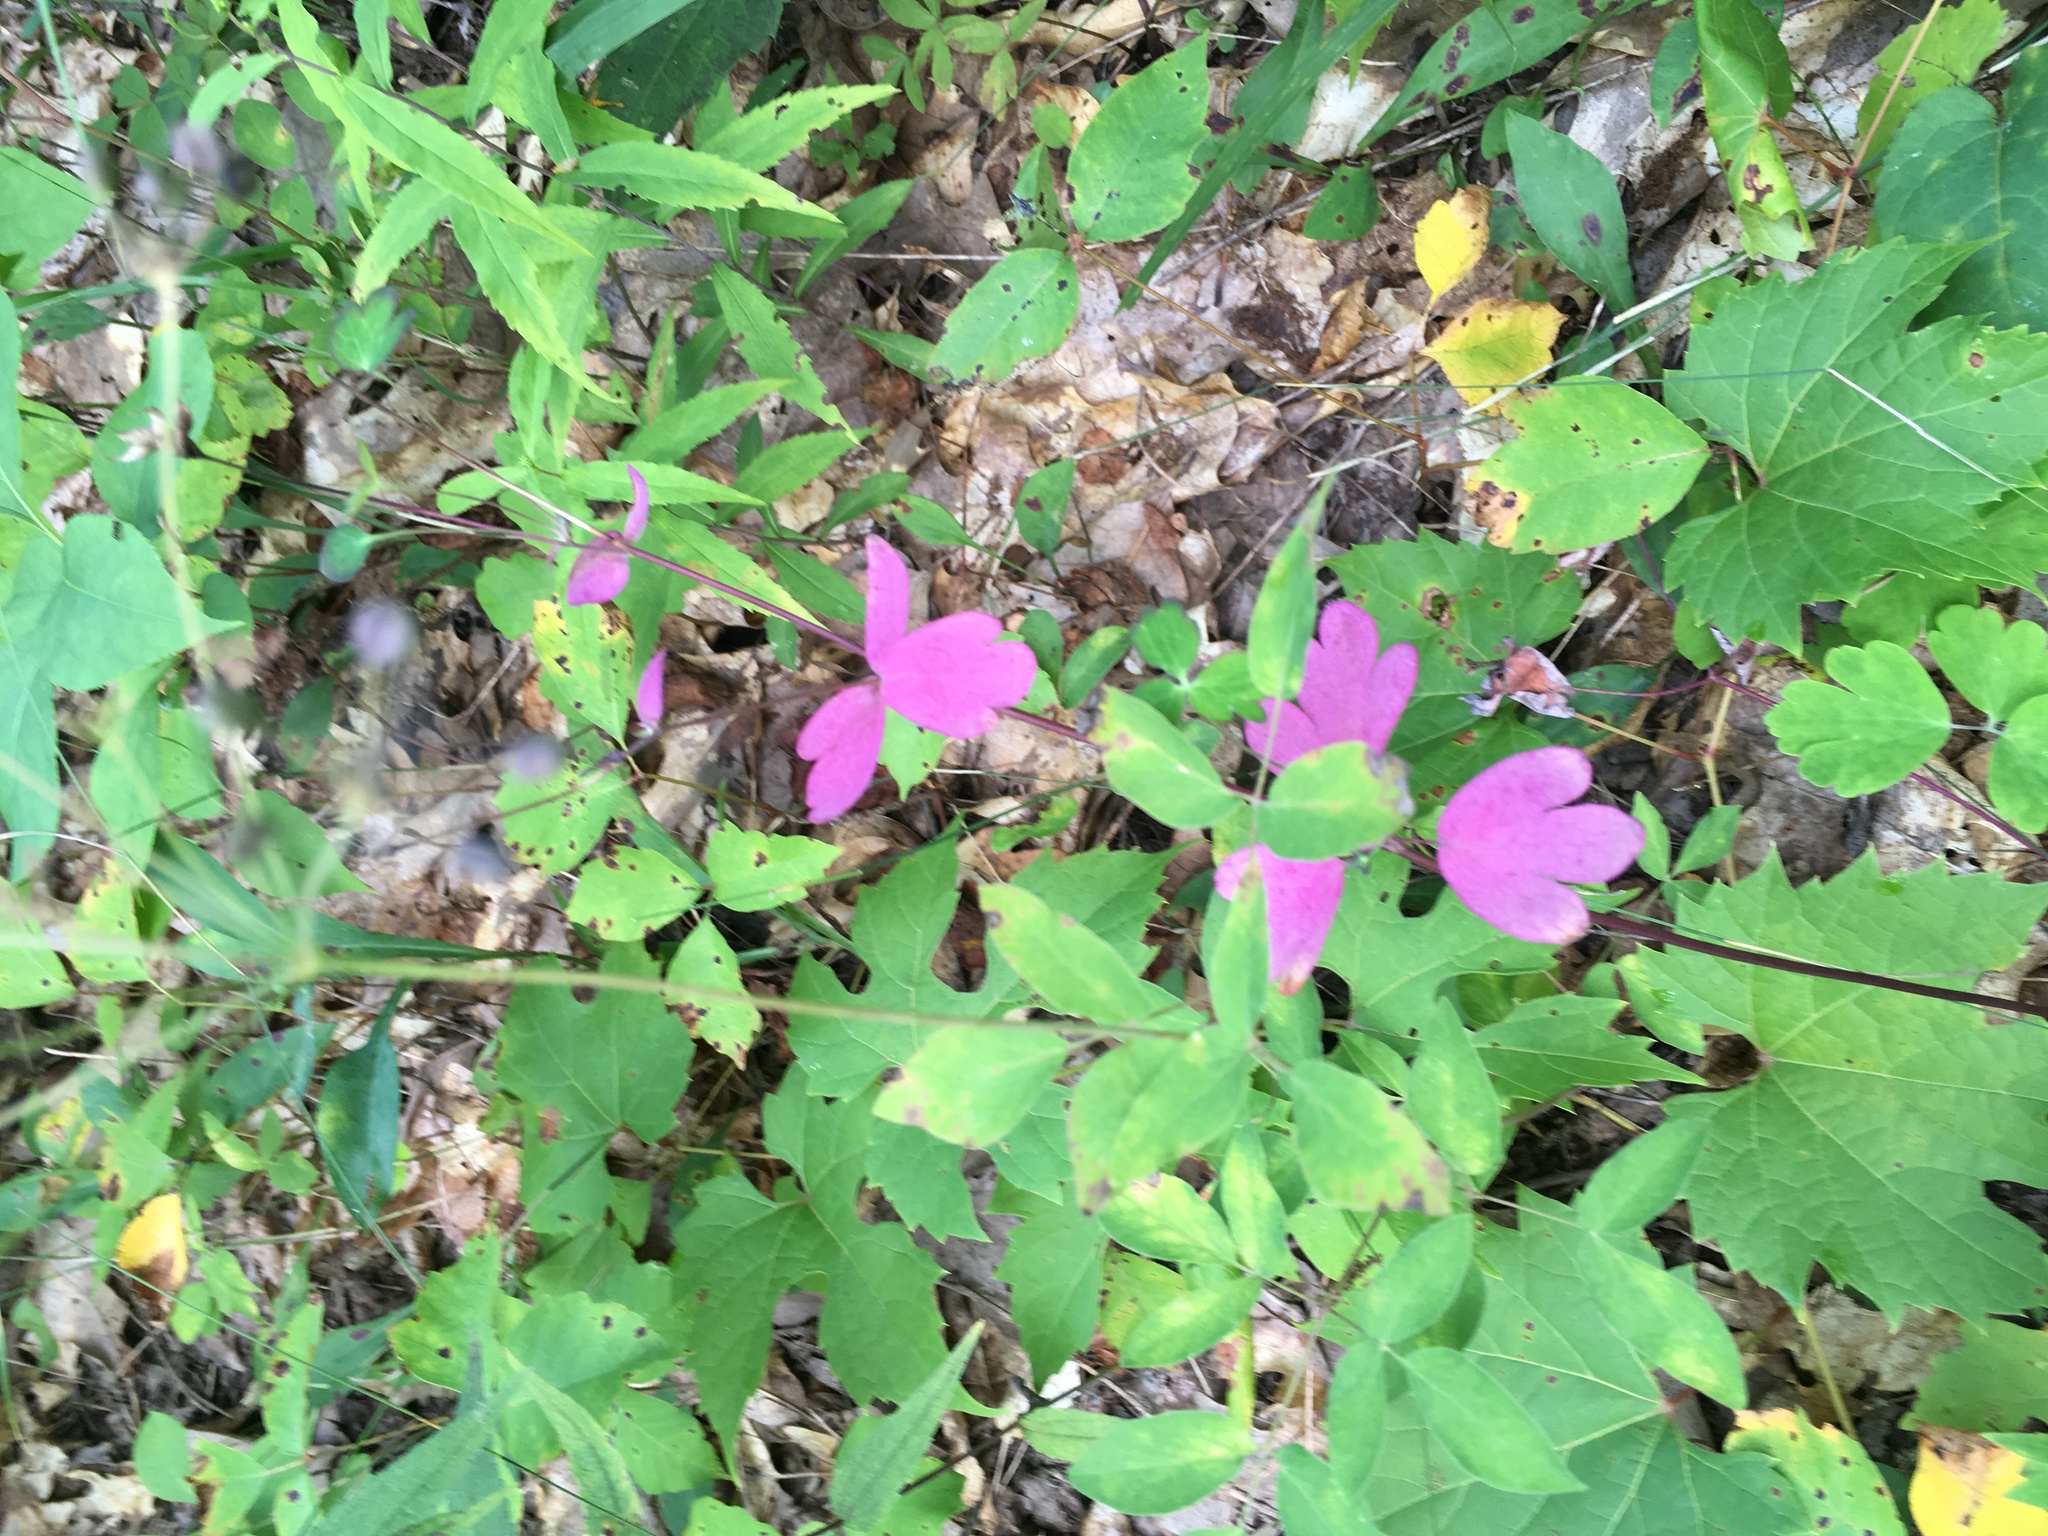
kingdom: Plantae
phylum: Tracheophyta
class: Magnoliopsida
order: Ranunculales
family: Ranunculaceae
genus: Aquilegia
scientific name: Aquilegia canadensis
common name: American columbine
